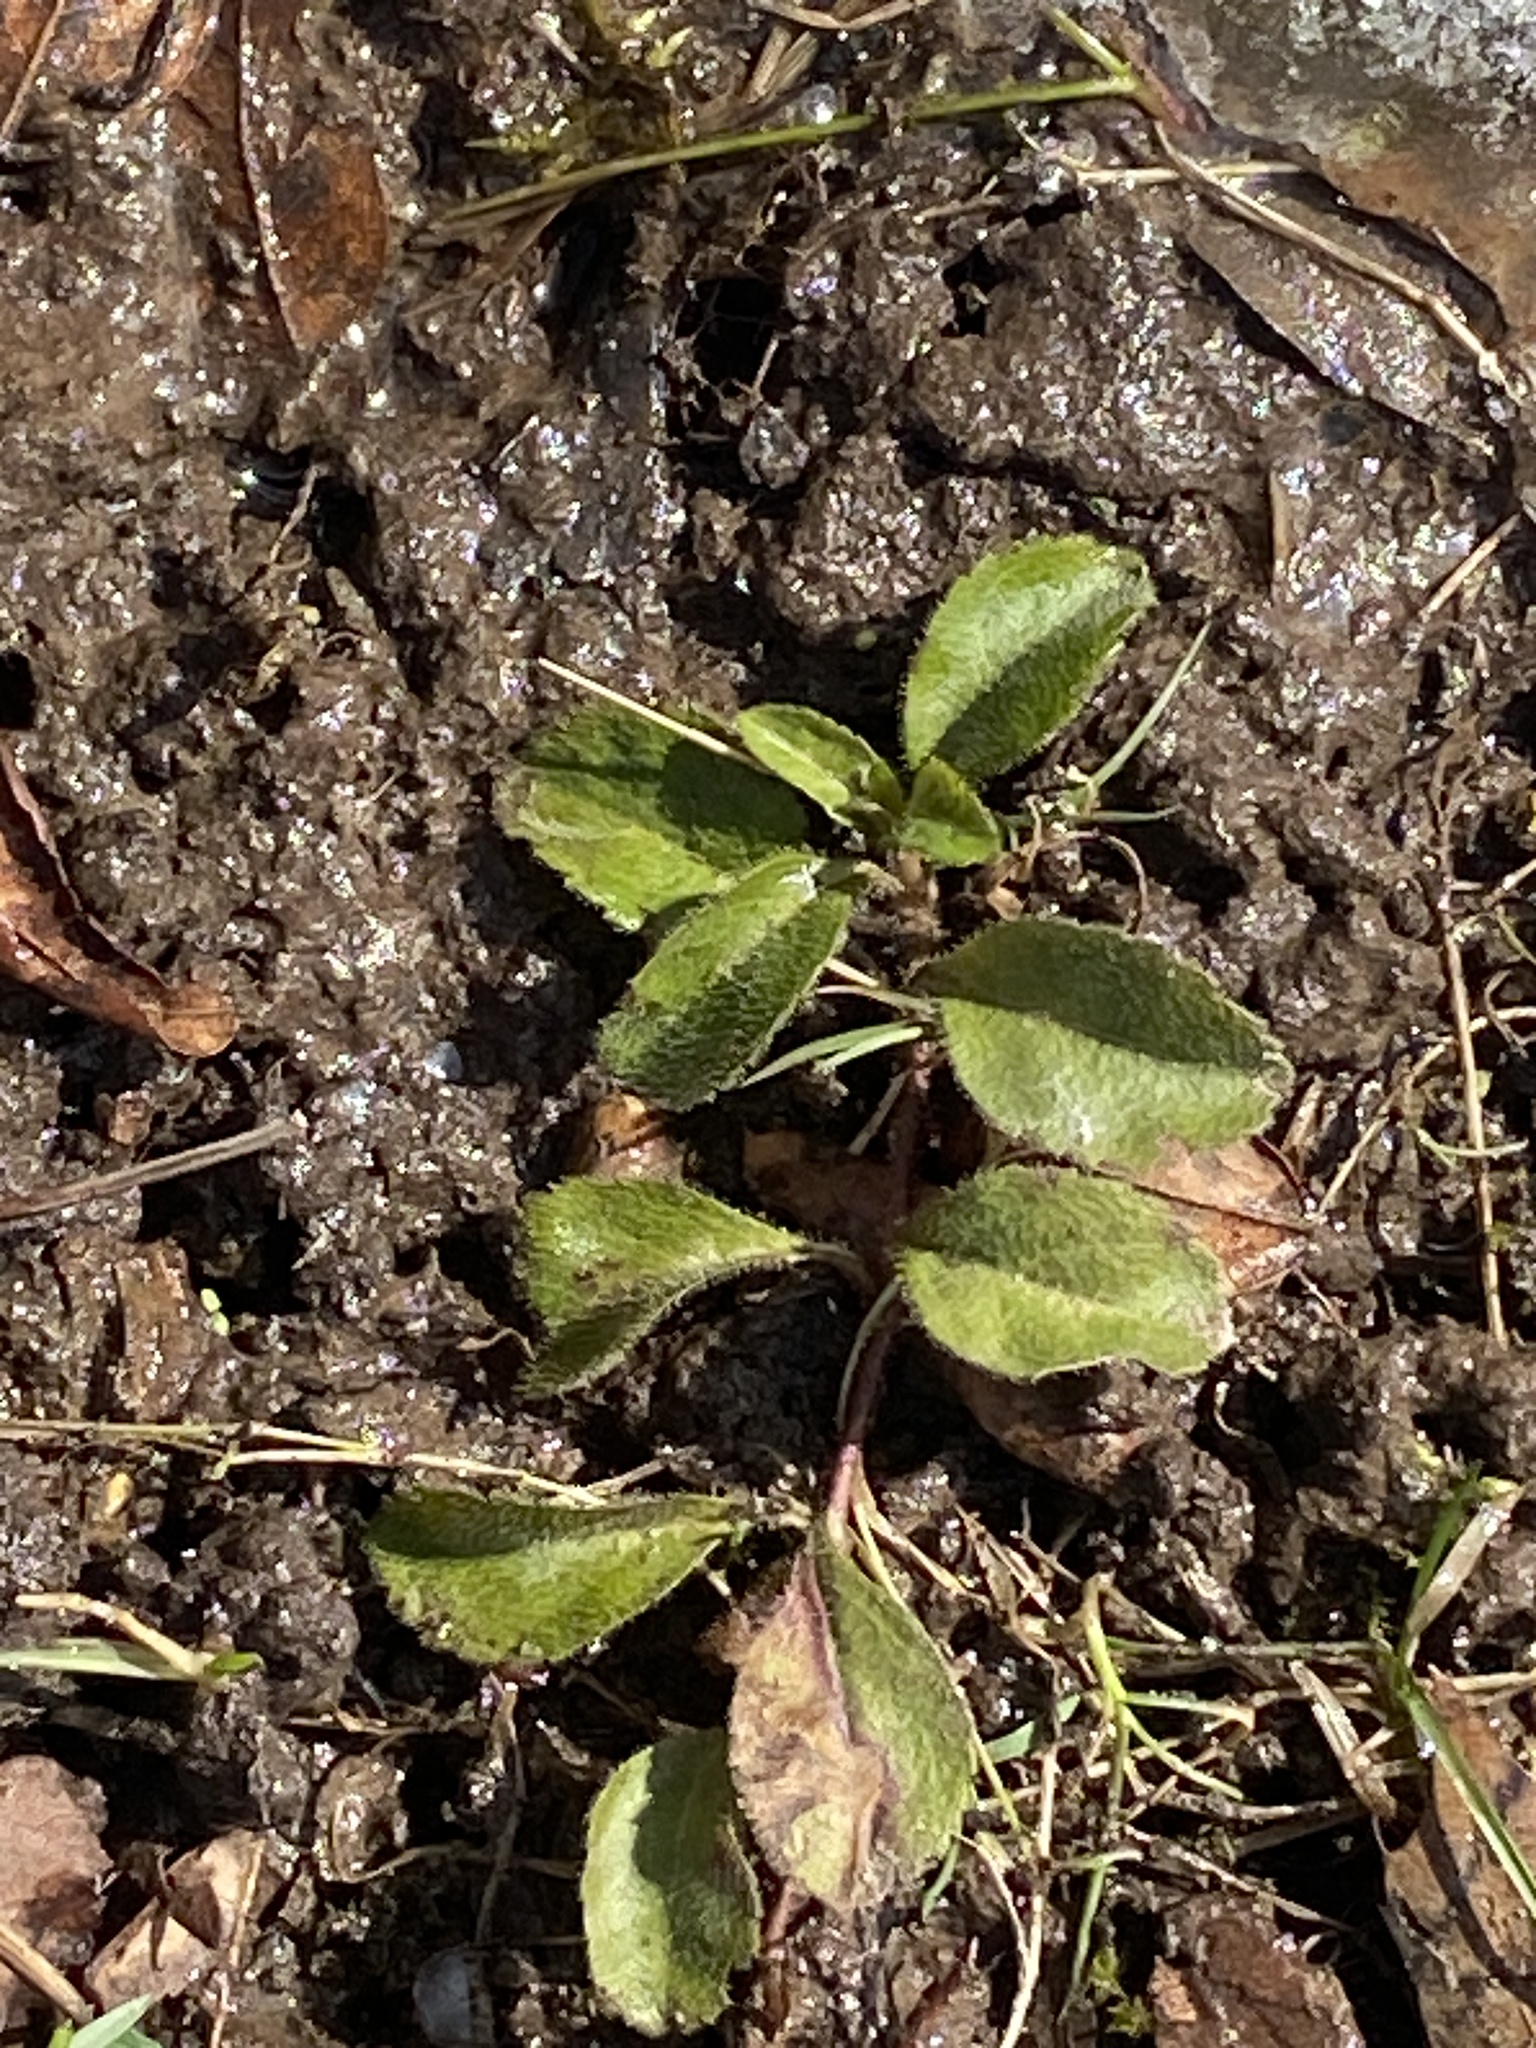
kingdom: Plantae
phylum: Tracheophyta
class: Magnoliopsida
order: Lamiales
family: Plantaginaceae
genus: Veronica
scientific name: Veronica officinalis
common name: Common speedwell
